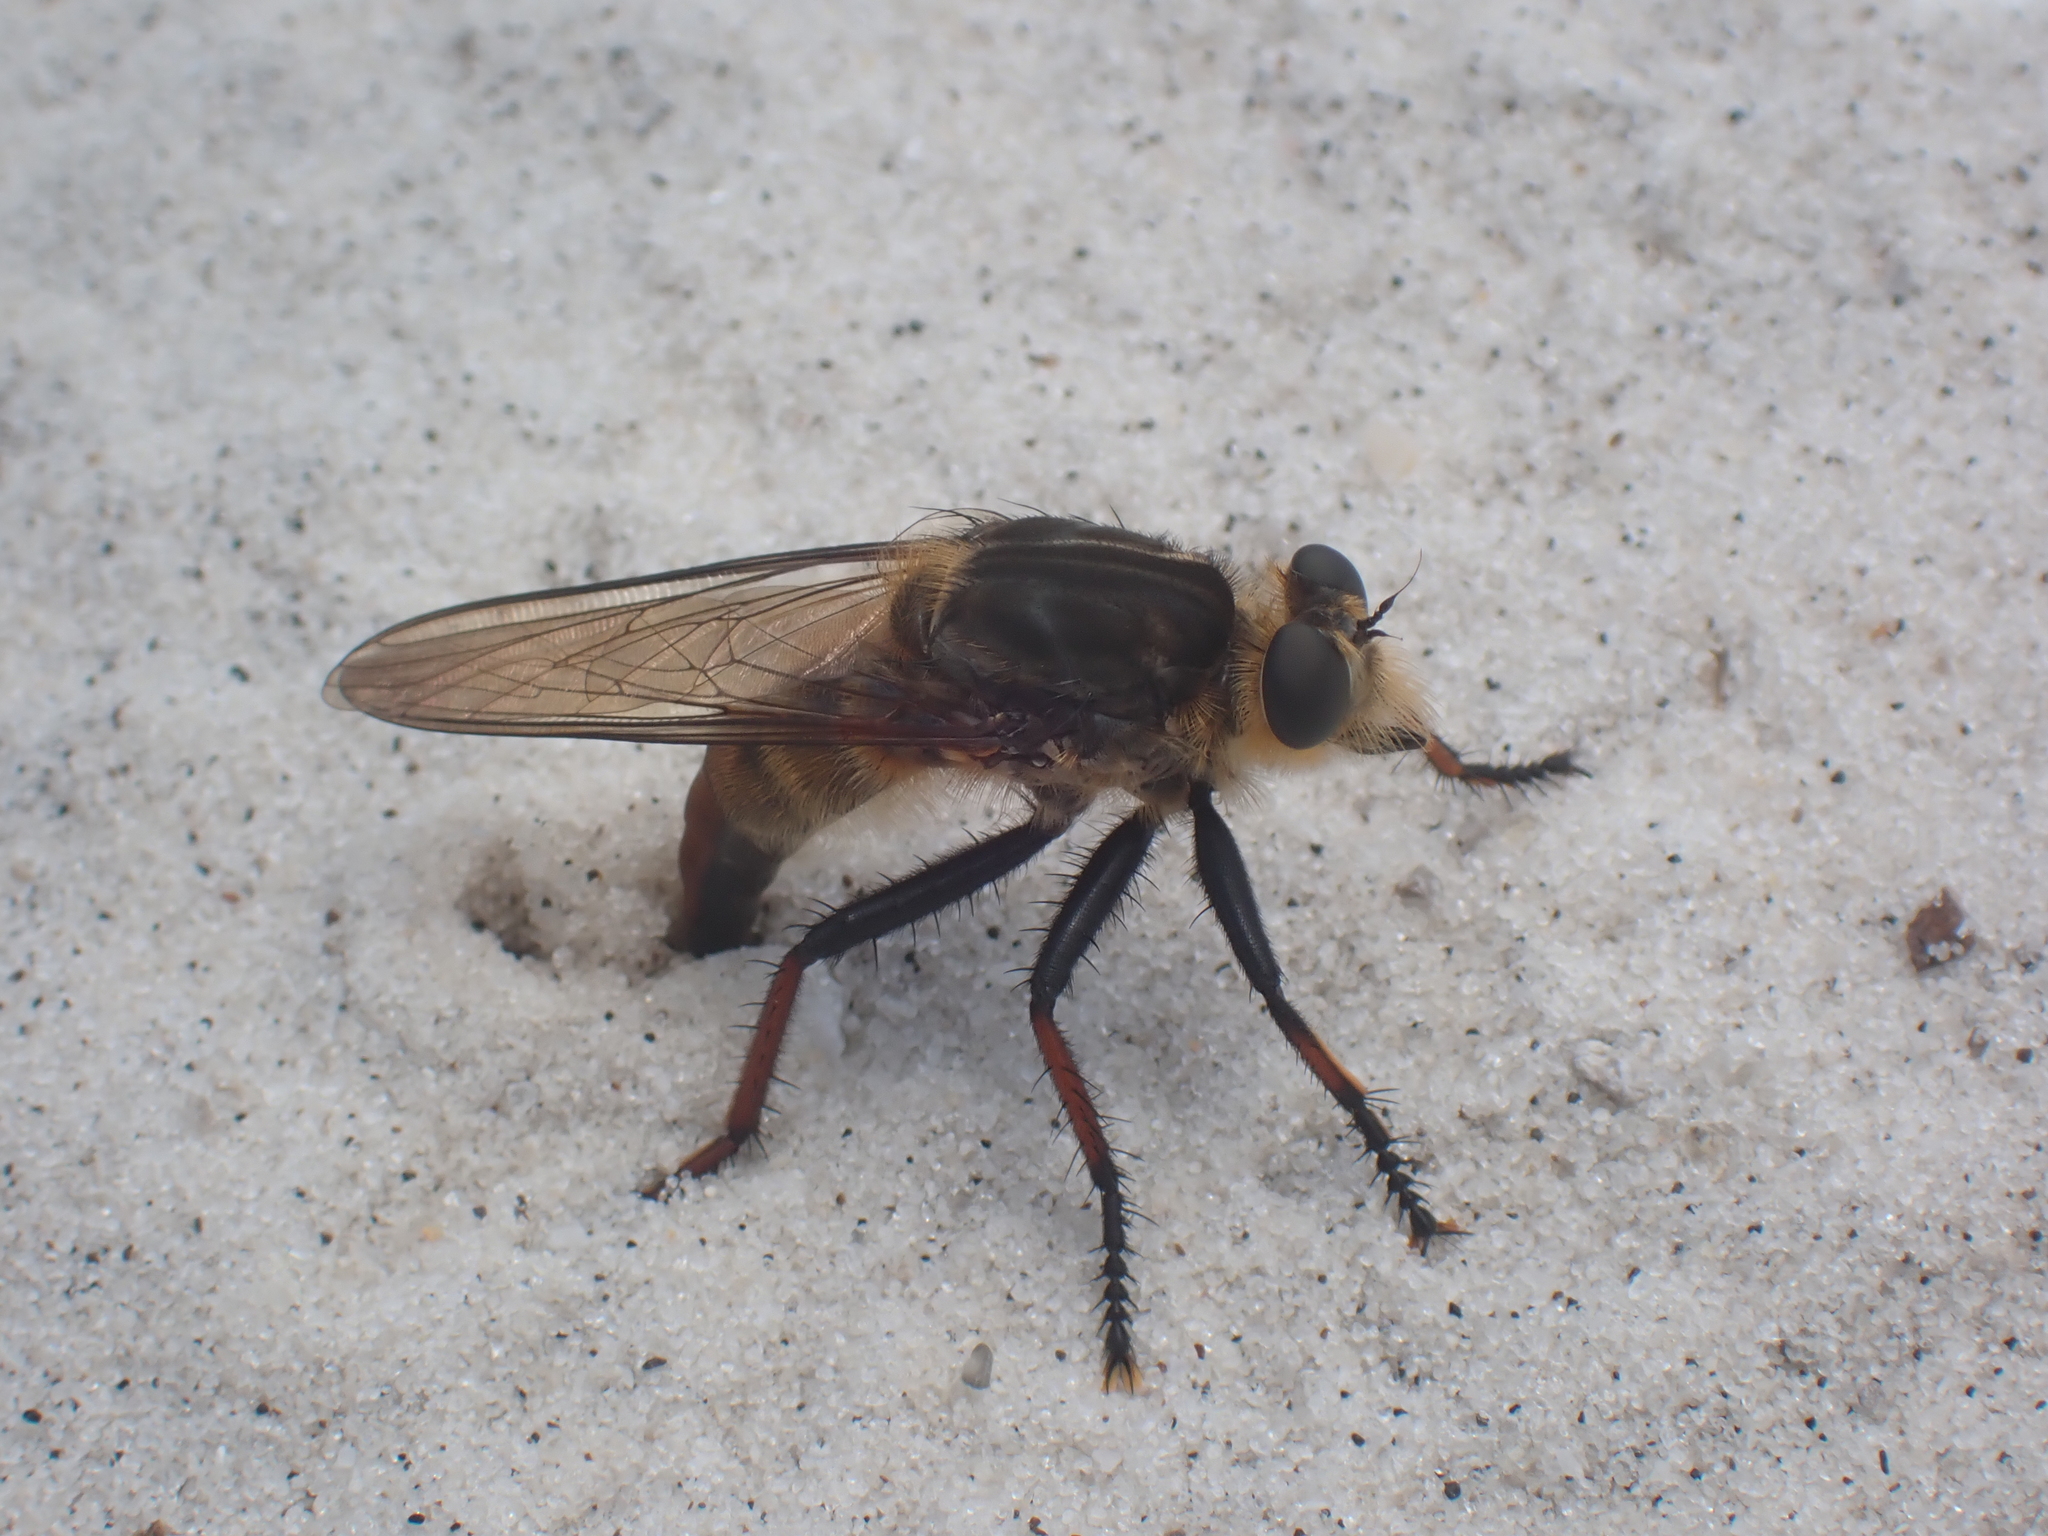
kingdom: Animalia
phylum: Arthropoda
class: Insecta
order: Diptera
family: Asilidae
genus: Proctacanthus
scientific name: Proctacanthus fulviventris
